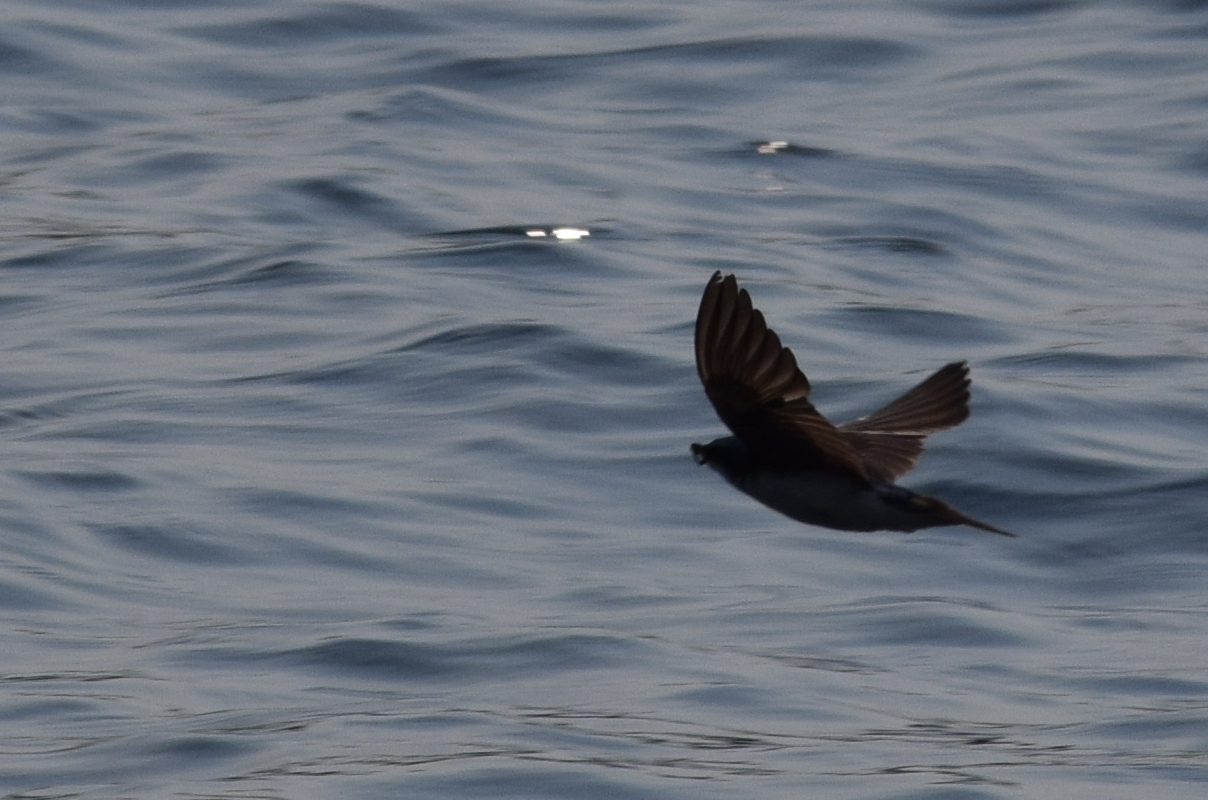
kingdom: Animalia
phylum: Chordata
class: Aves
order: Passeriformes
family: Hirundinidae
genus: Tachycineta
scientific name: Tachycineta bicolor
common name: Tree swallow
